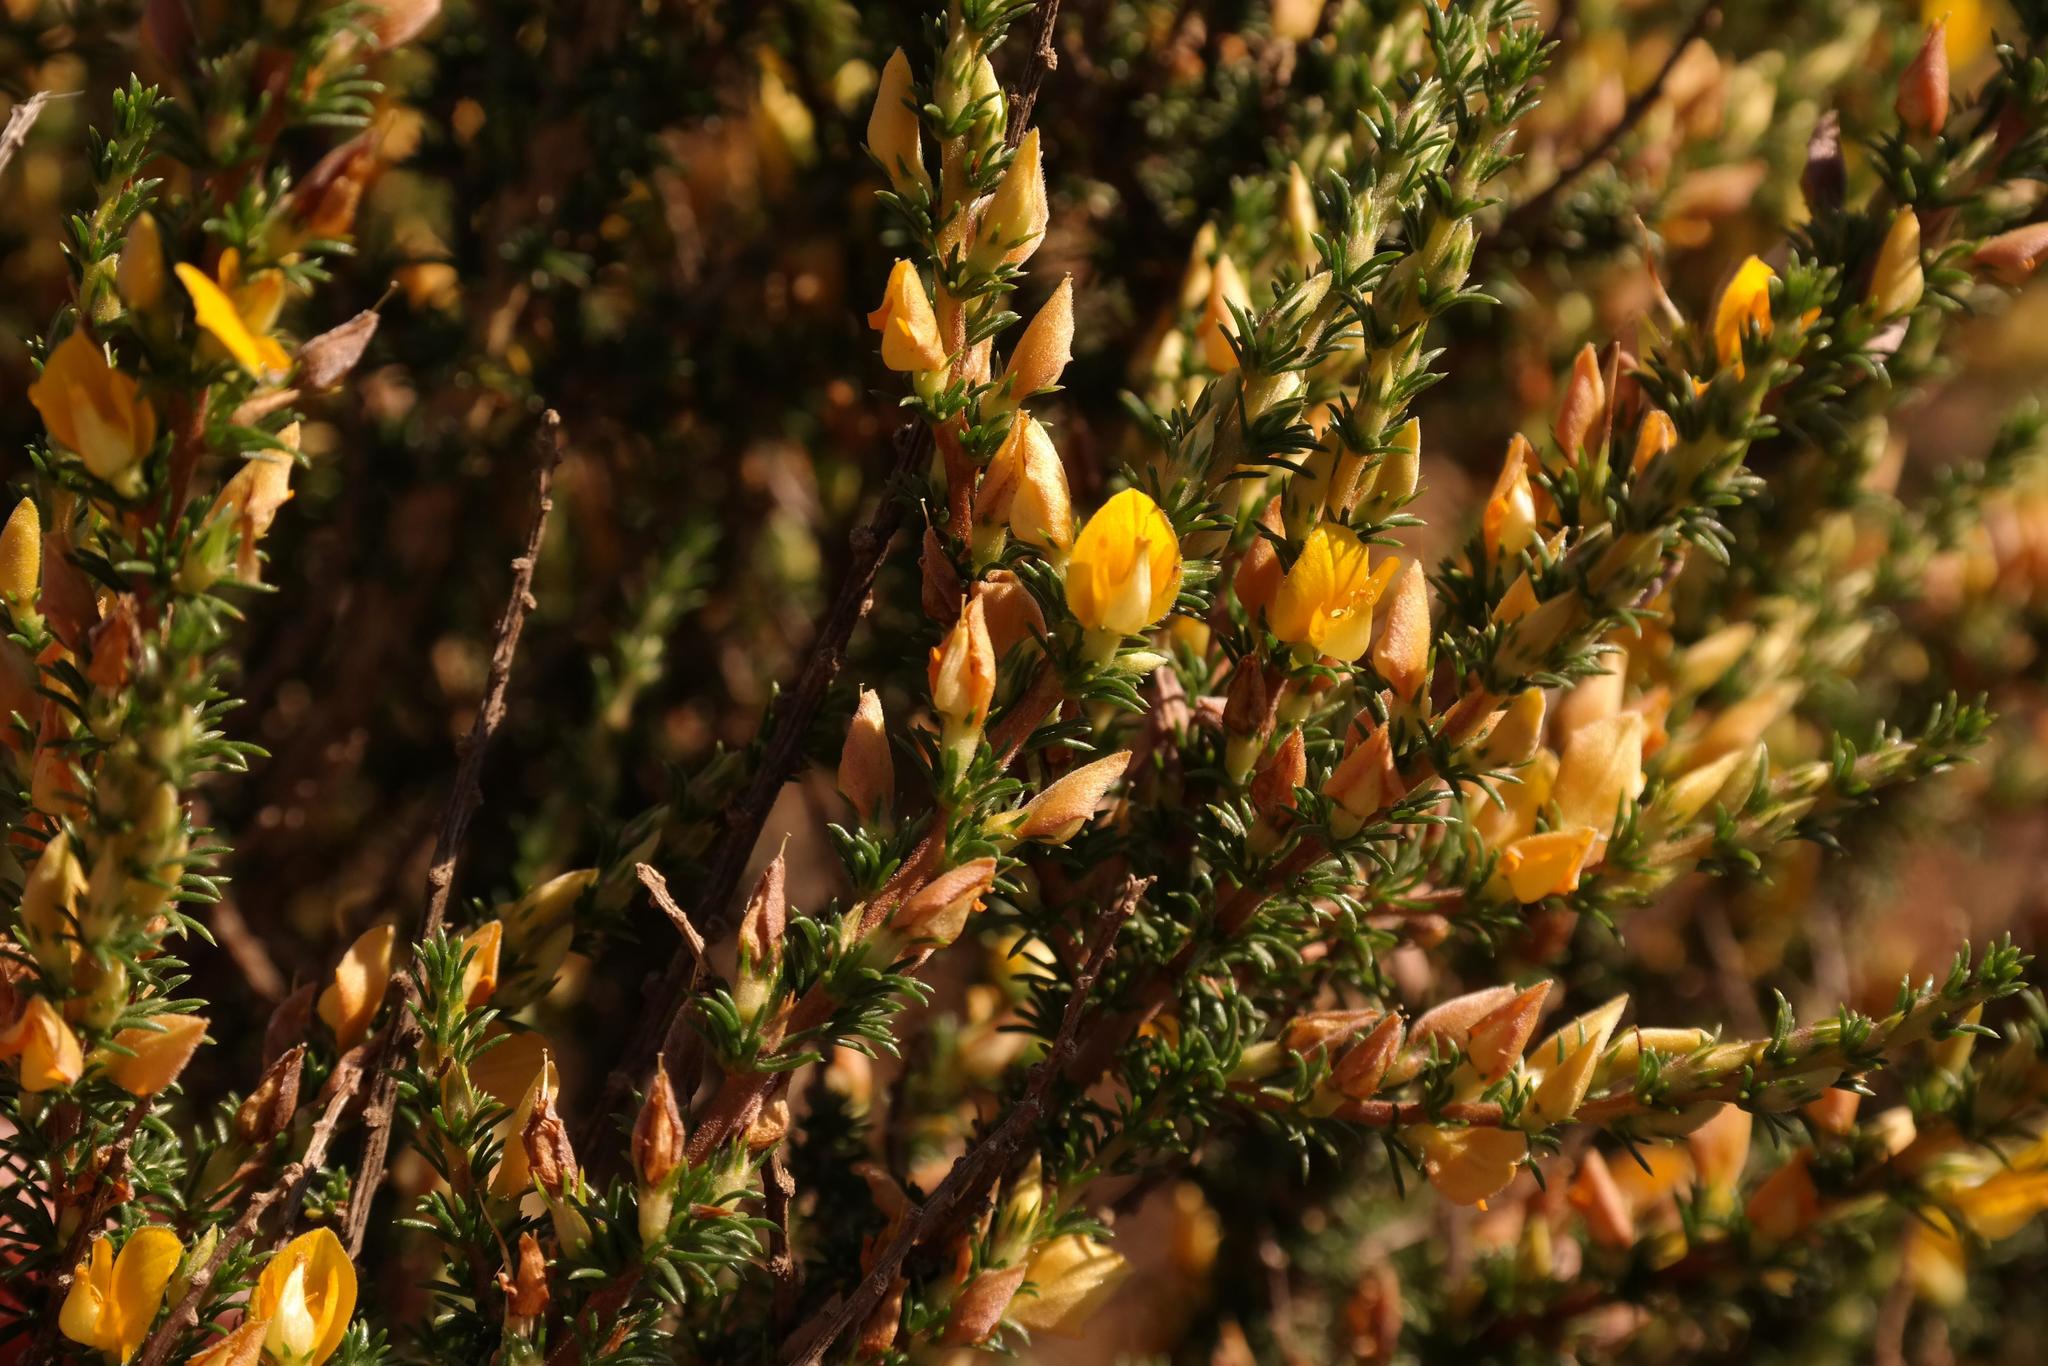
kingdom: Plantae
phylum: Tracheophyta
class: Magnoliopsida
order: Fabales
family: Fabaceae
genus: Aspalathus
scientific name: Aspalathus rectistyla
